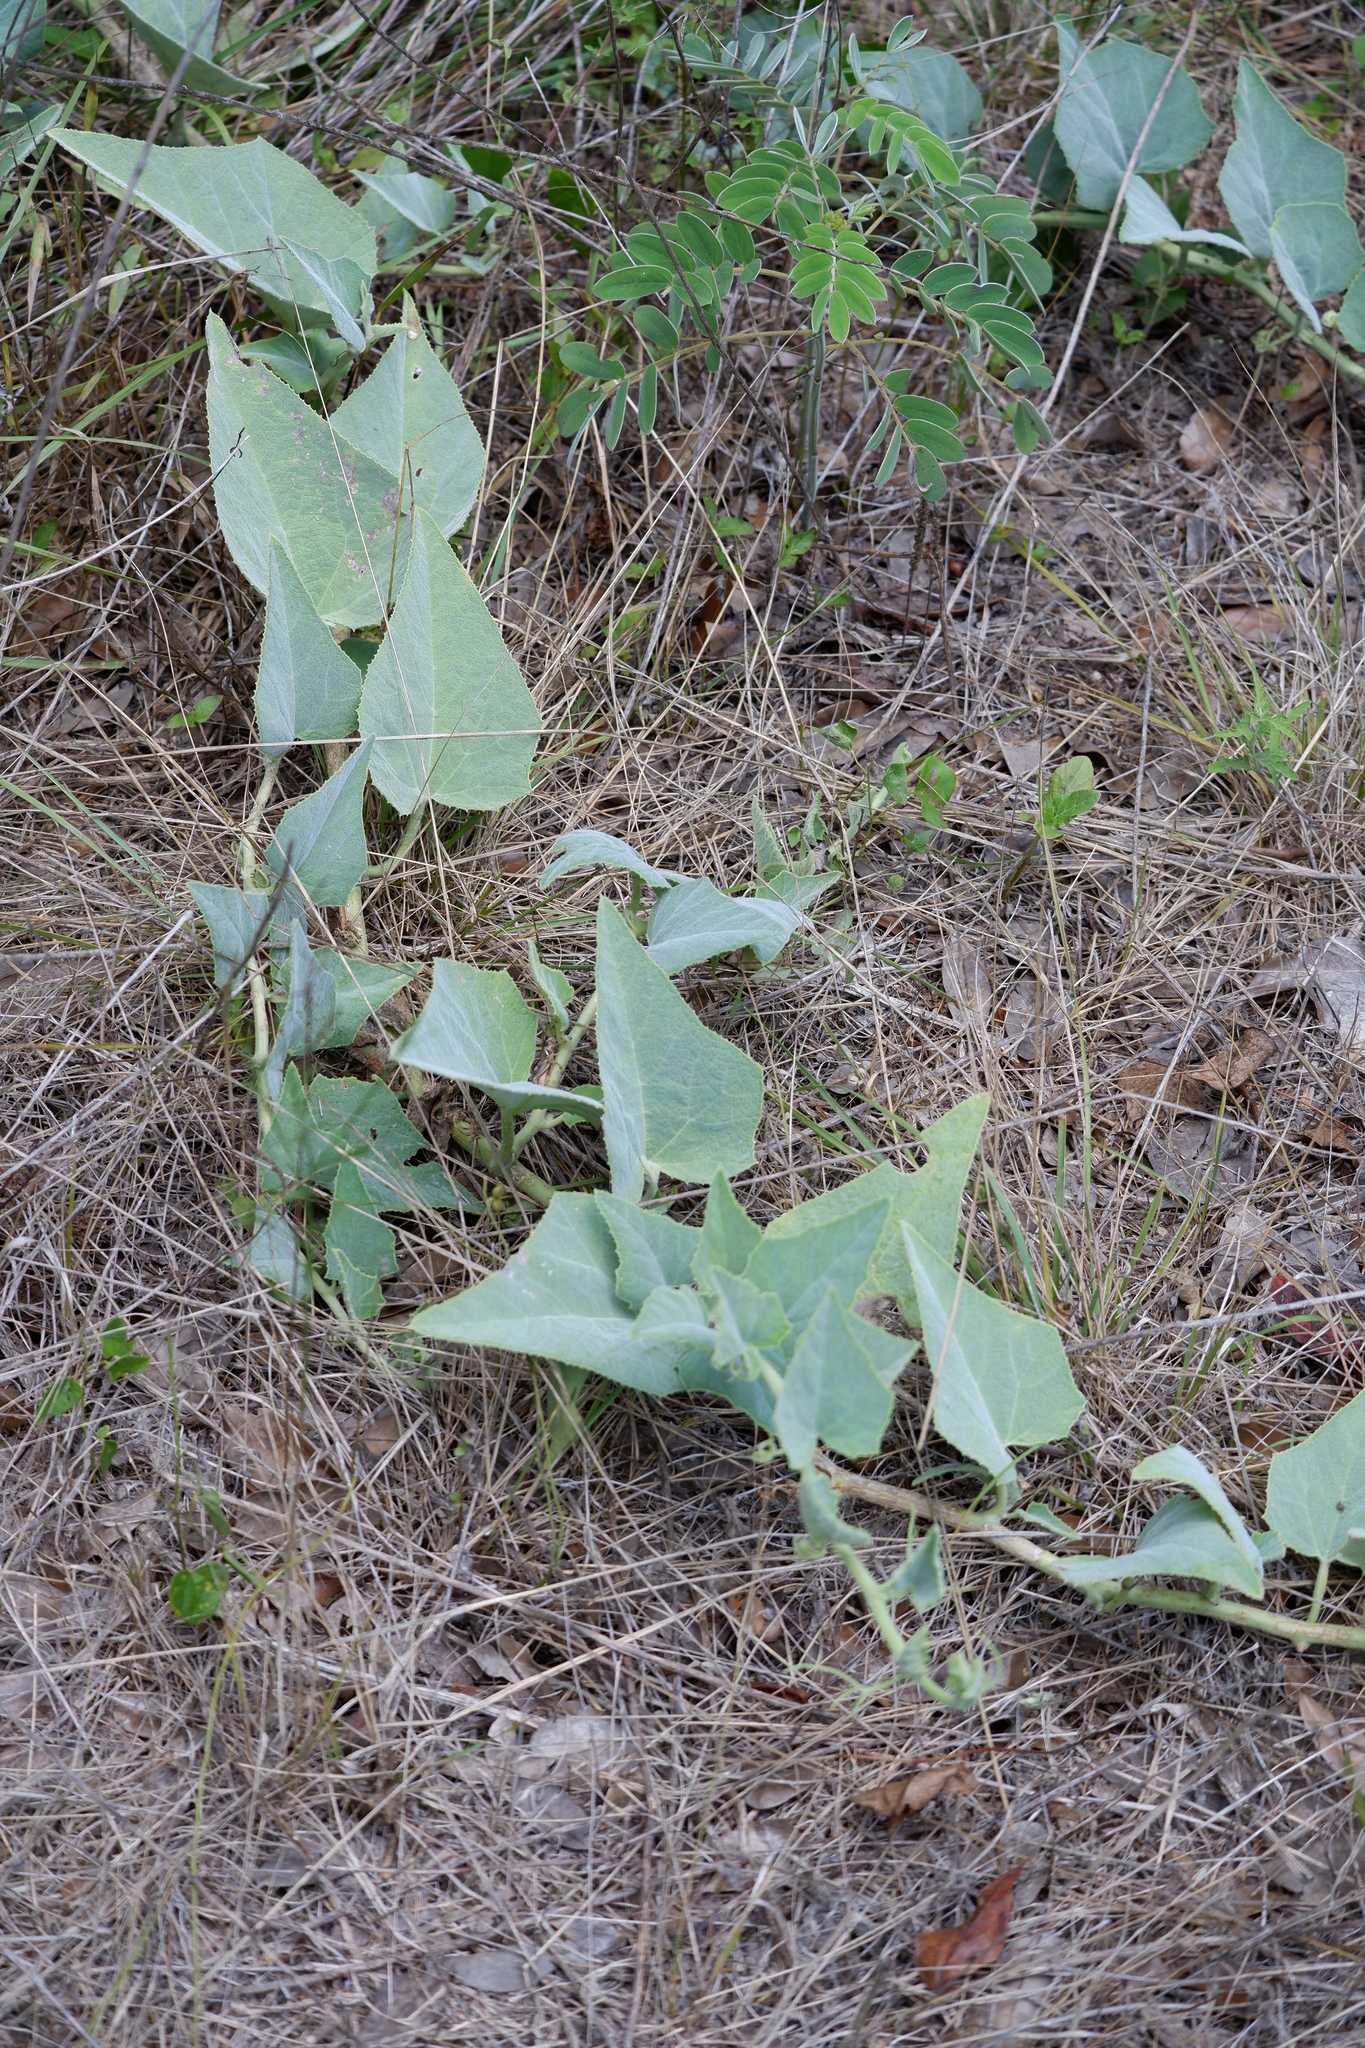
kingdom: Plantae
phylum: Tracheophyta
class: Magnoliopsida
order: Cucurbitales
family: Cucurbitaceae
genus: Cucurbita
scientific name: Cucurbita foetidissima
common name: Buffalo gourd
